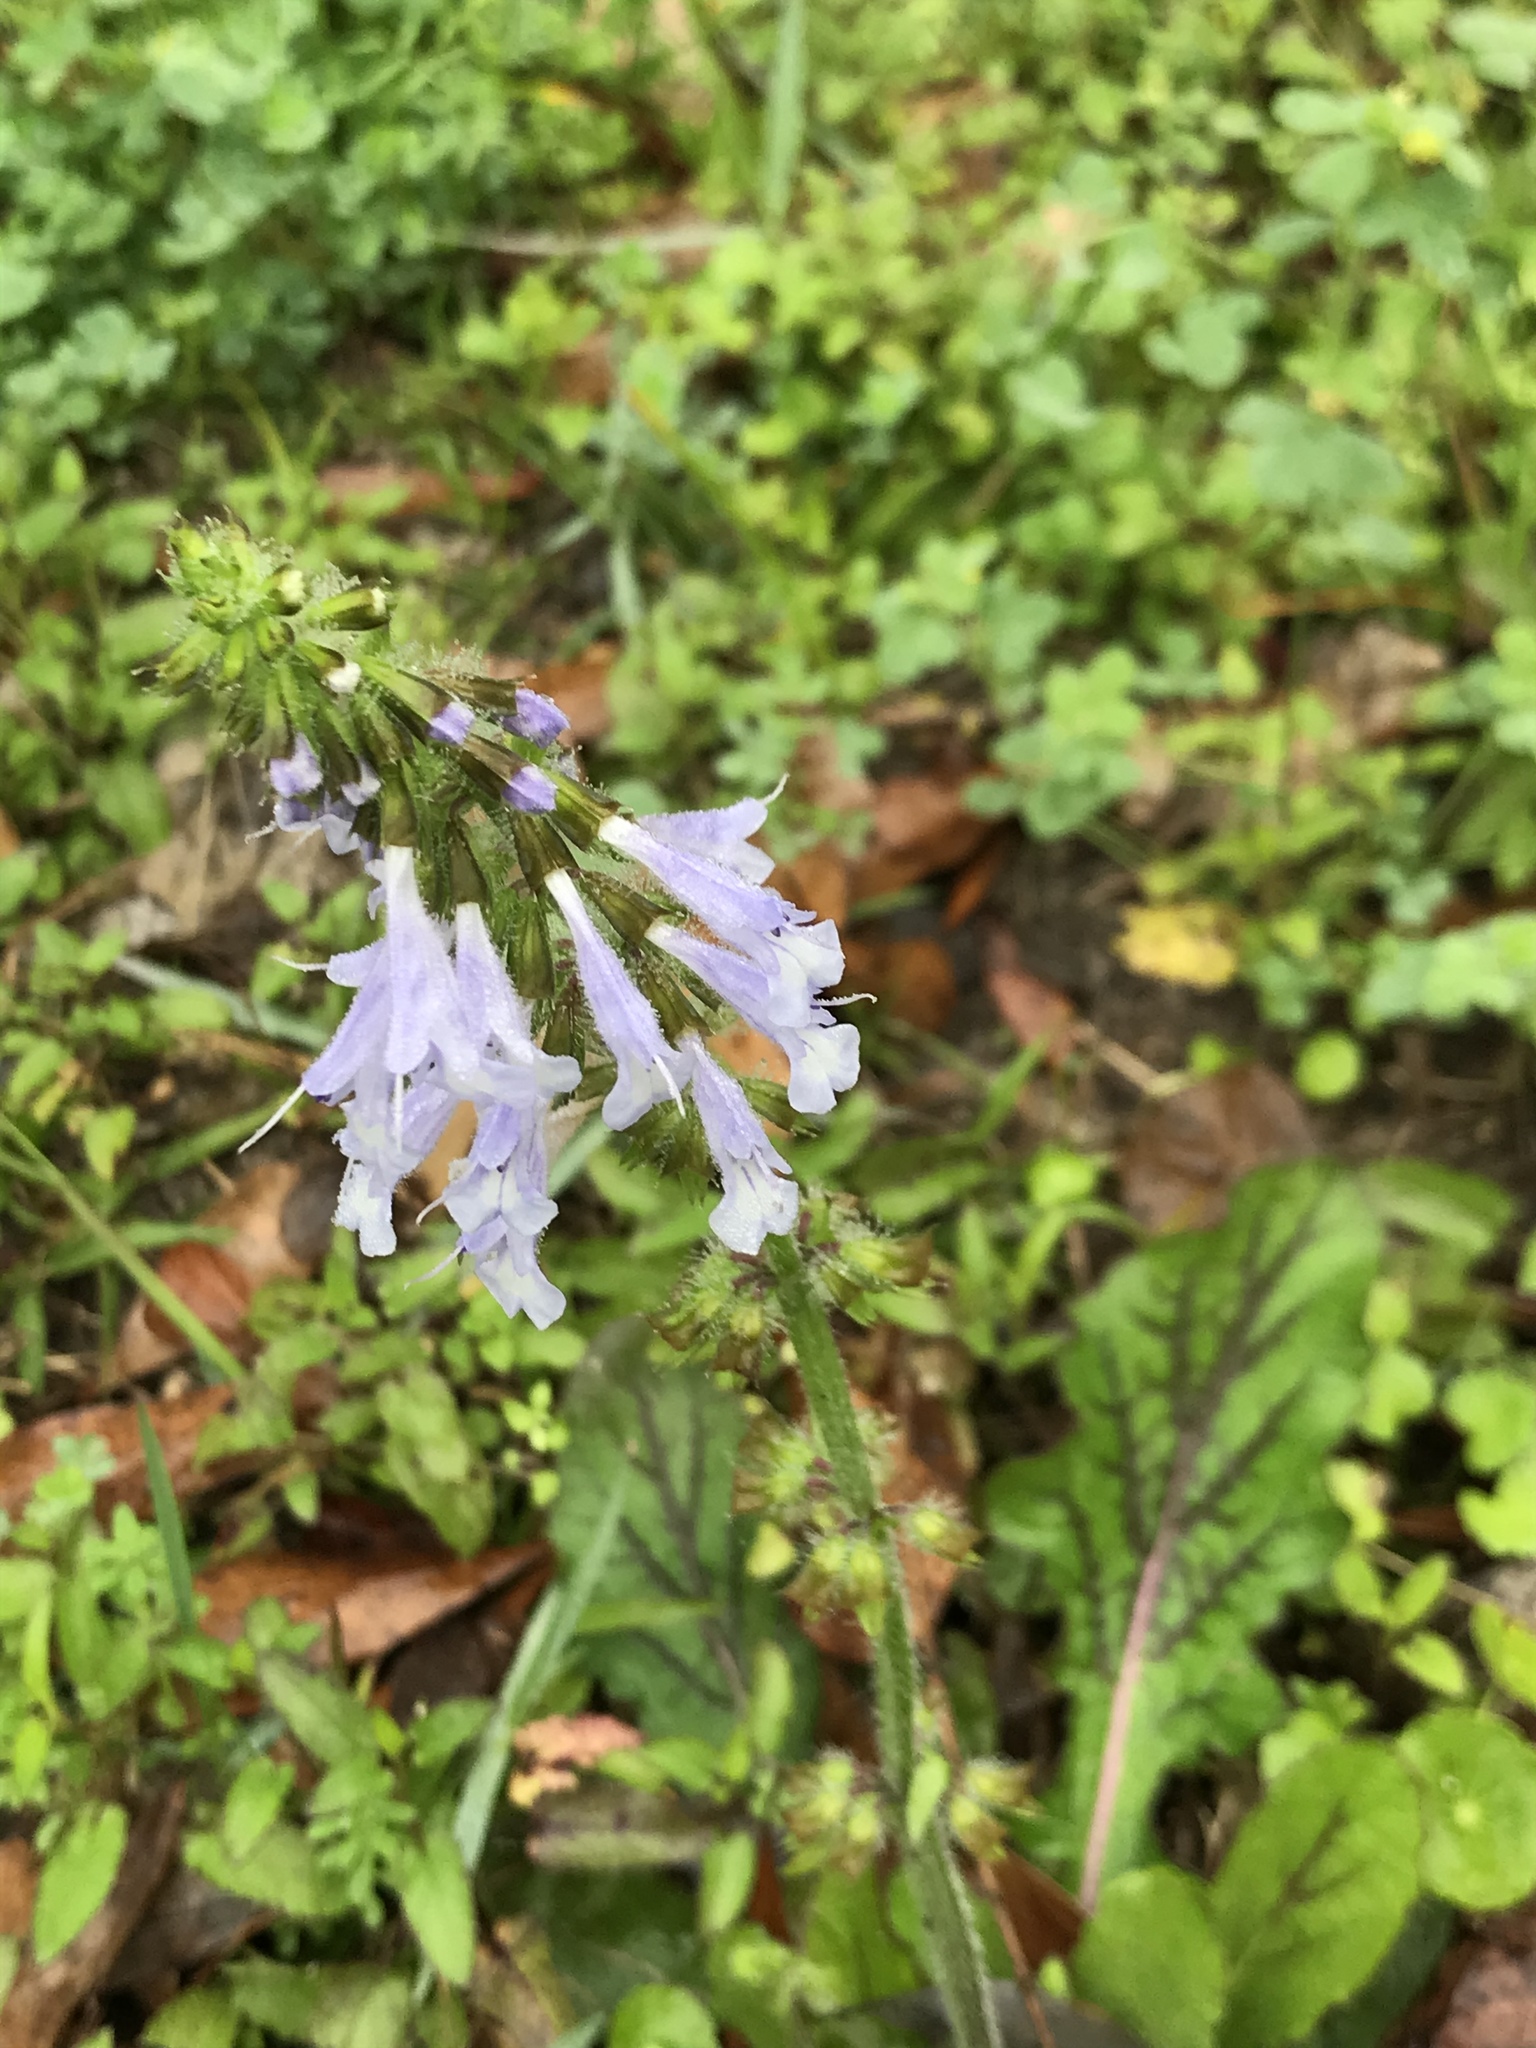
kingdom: Plantae
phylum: Tracheophyta
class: Magnoliopsida
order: Lamiales
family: Lamiaceae
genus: Salvia
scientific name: Salvia lyrata
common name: Cancerweed
